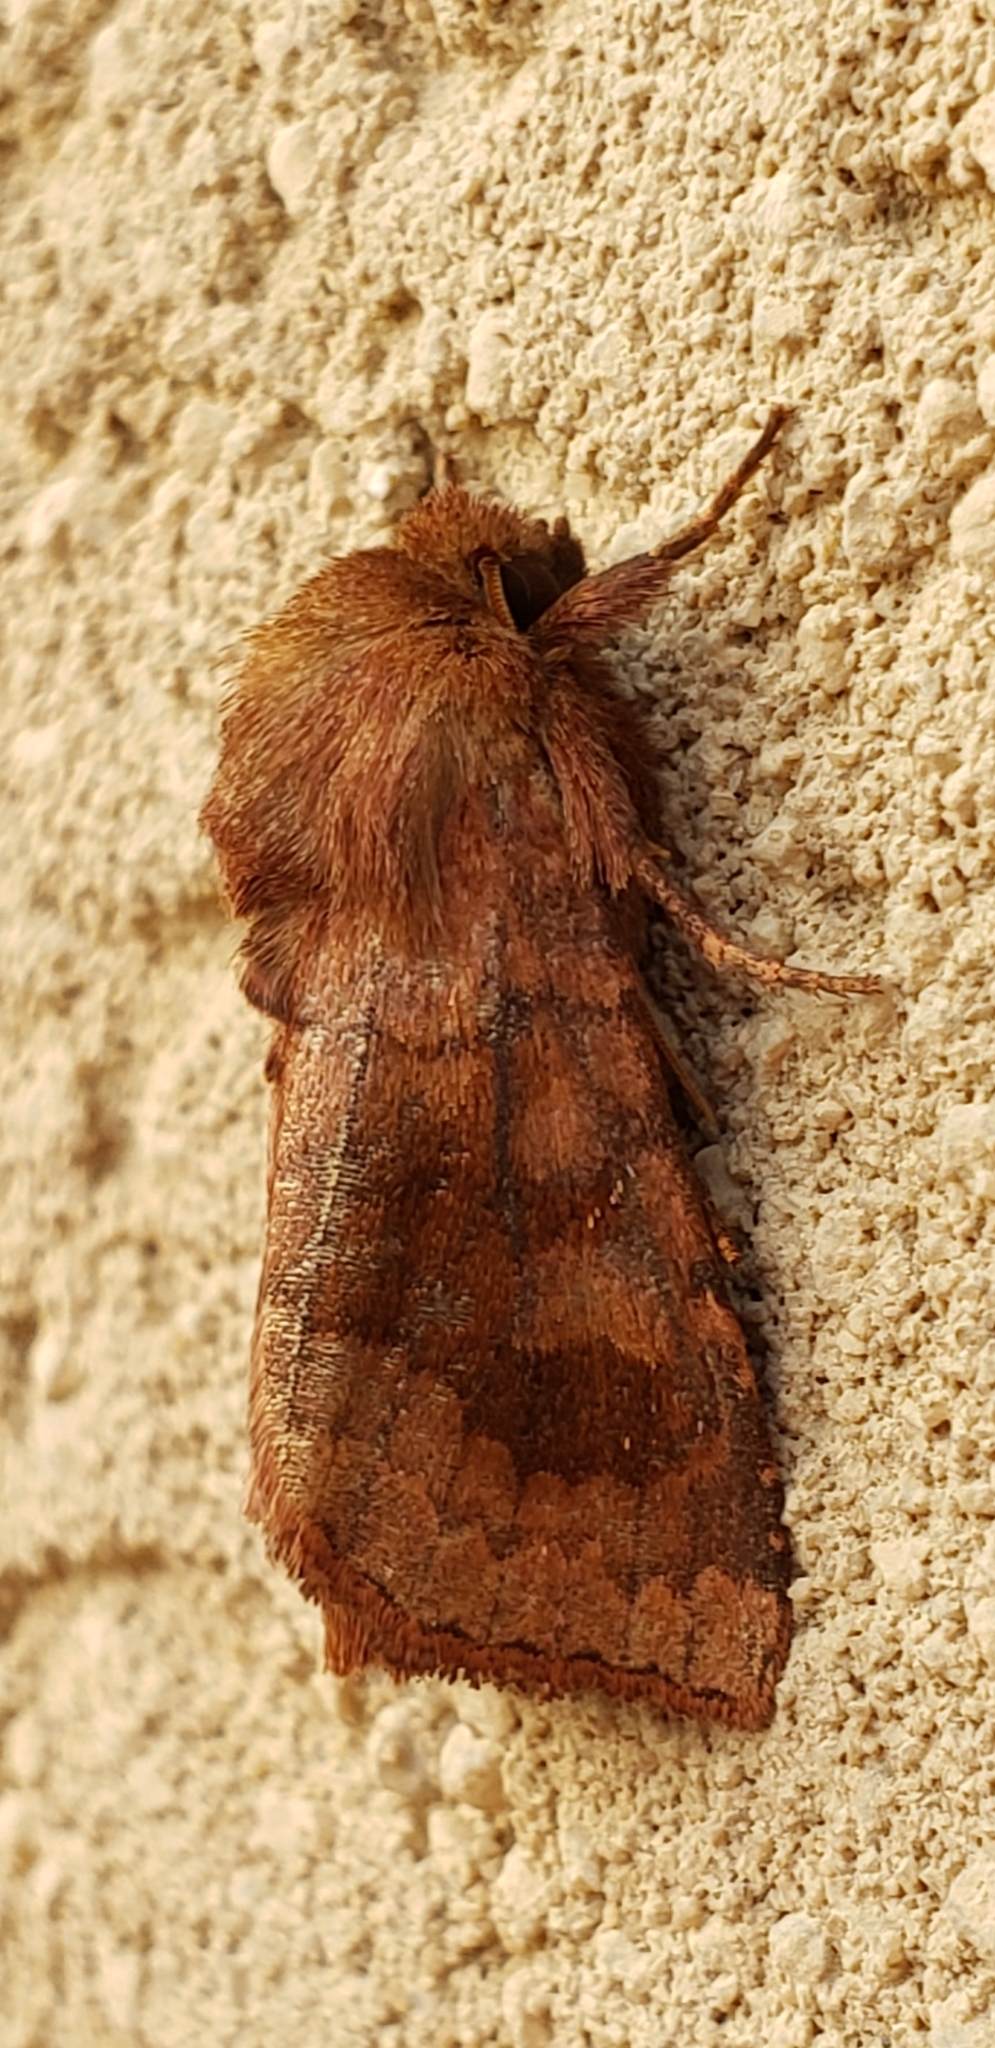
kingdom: Animalia
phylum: Arthropoda
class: Insecta
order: Lepidoptera
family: Noctuidae
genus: Nephelodes
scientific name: Nephelodes minians
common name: Bronzed cutworm
